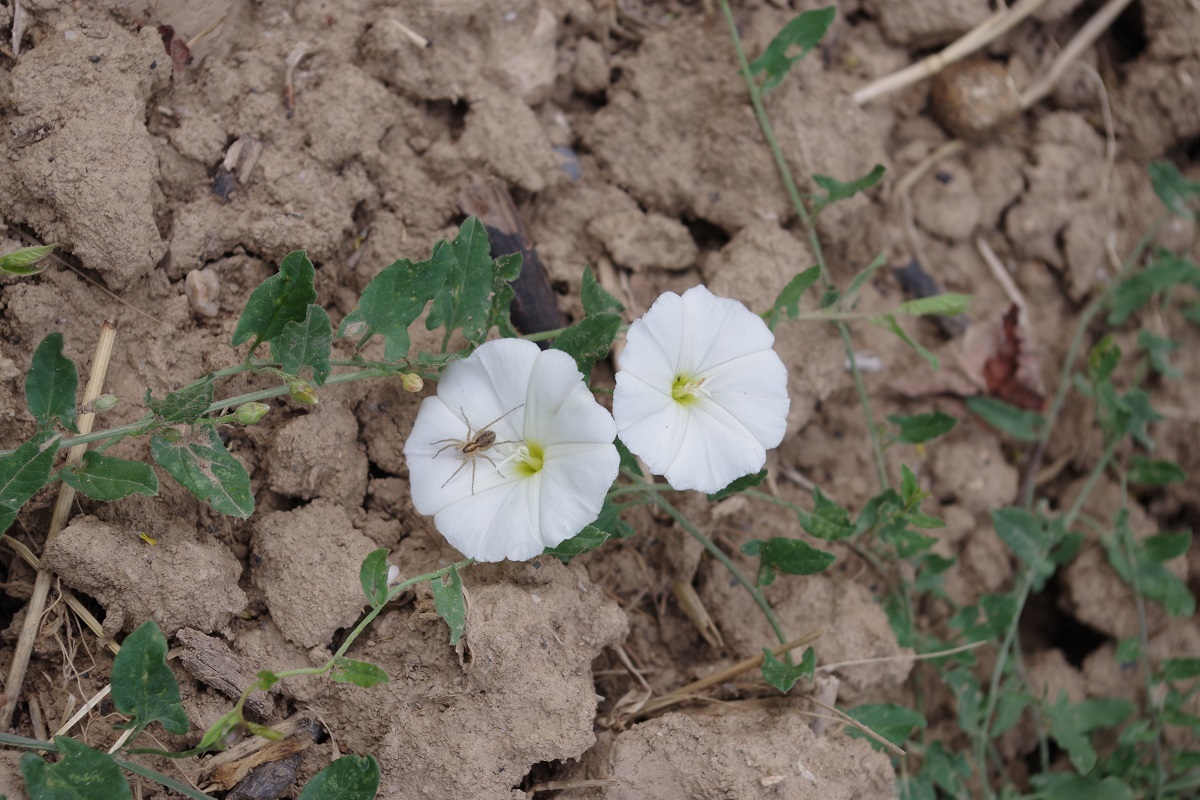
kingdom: Plantae
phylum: Tracheophyta
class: Magnoliopsida
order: Solanales
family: Convolvulaceae
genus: Convolvulus
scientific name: Convolvulus arvensis
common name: Field bindweed
